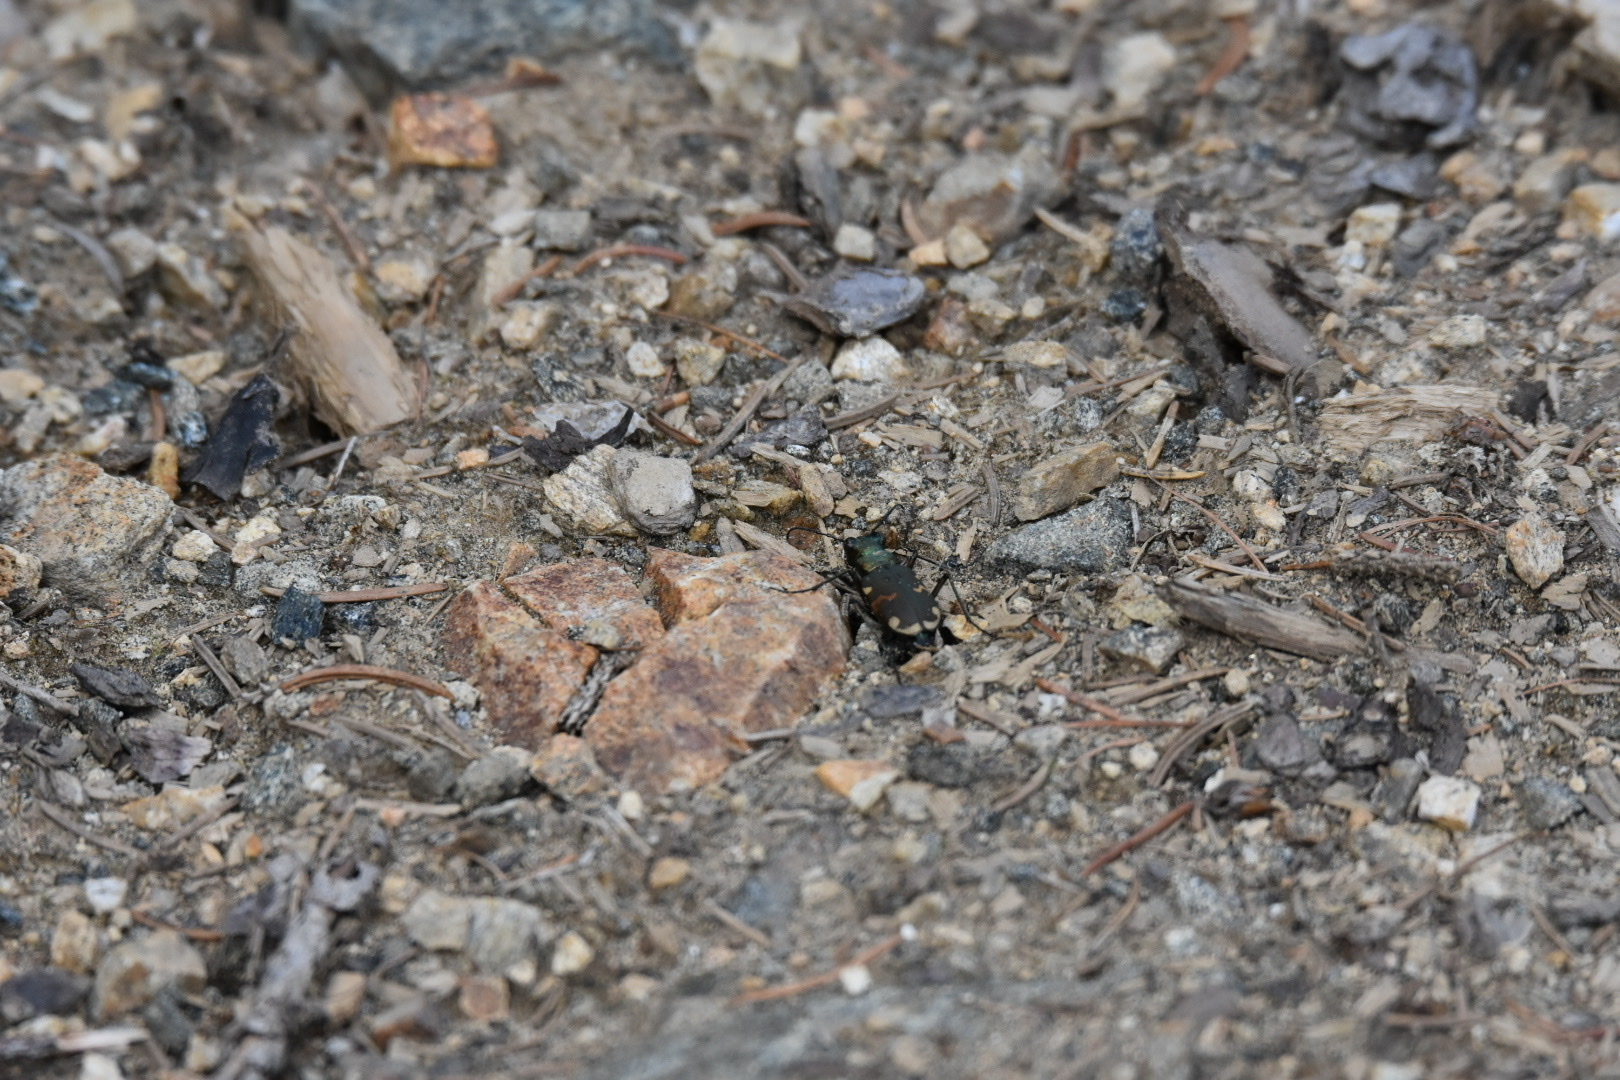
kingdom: Animalia
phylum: Arthropoda
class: Insecta
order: Coleoptera
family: Carabidae
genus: Cicindela
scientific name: Cicindela sylvicola
